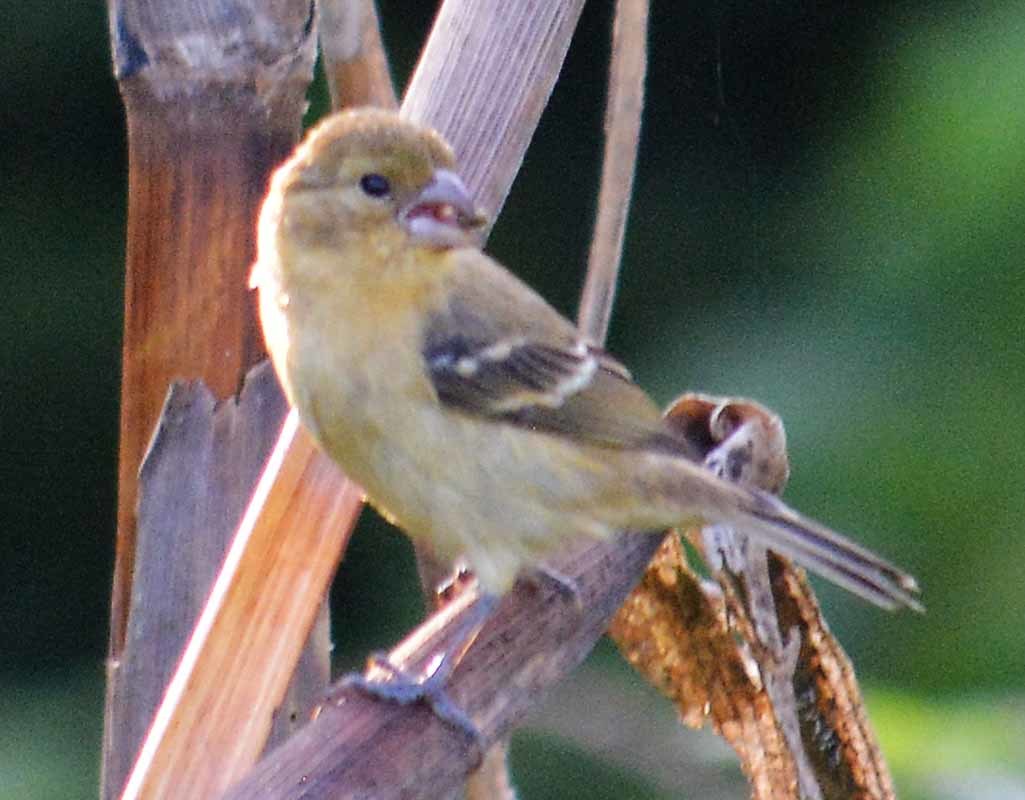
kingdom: Animalia
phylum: Chordata
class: Aves
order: Passeriformes
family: Thraupidae
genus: Sporophila
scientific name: Sporophila morelleti
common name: Morelet's seedeater
